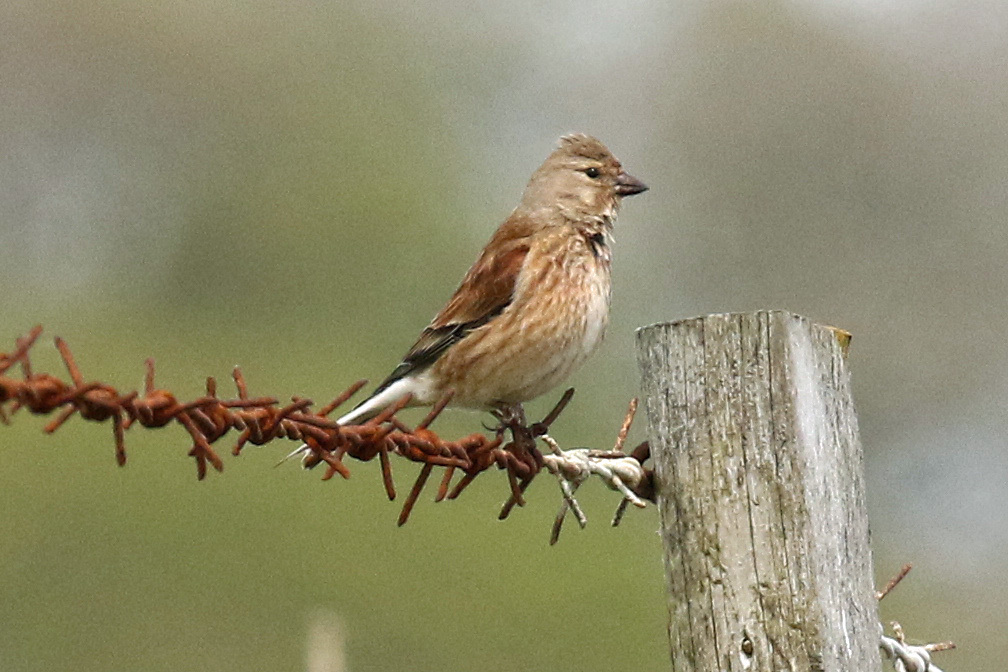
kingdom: Animalia
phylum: Chordata
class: Aves
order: Passeriformes
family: Fringillidae
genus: Linaria
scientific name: Linaria cannabina
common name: Common linnet
